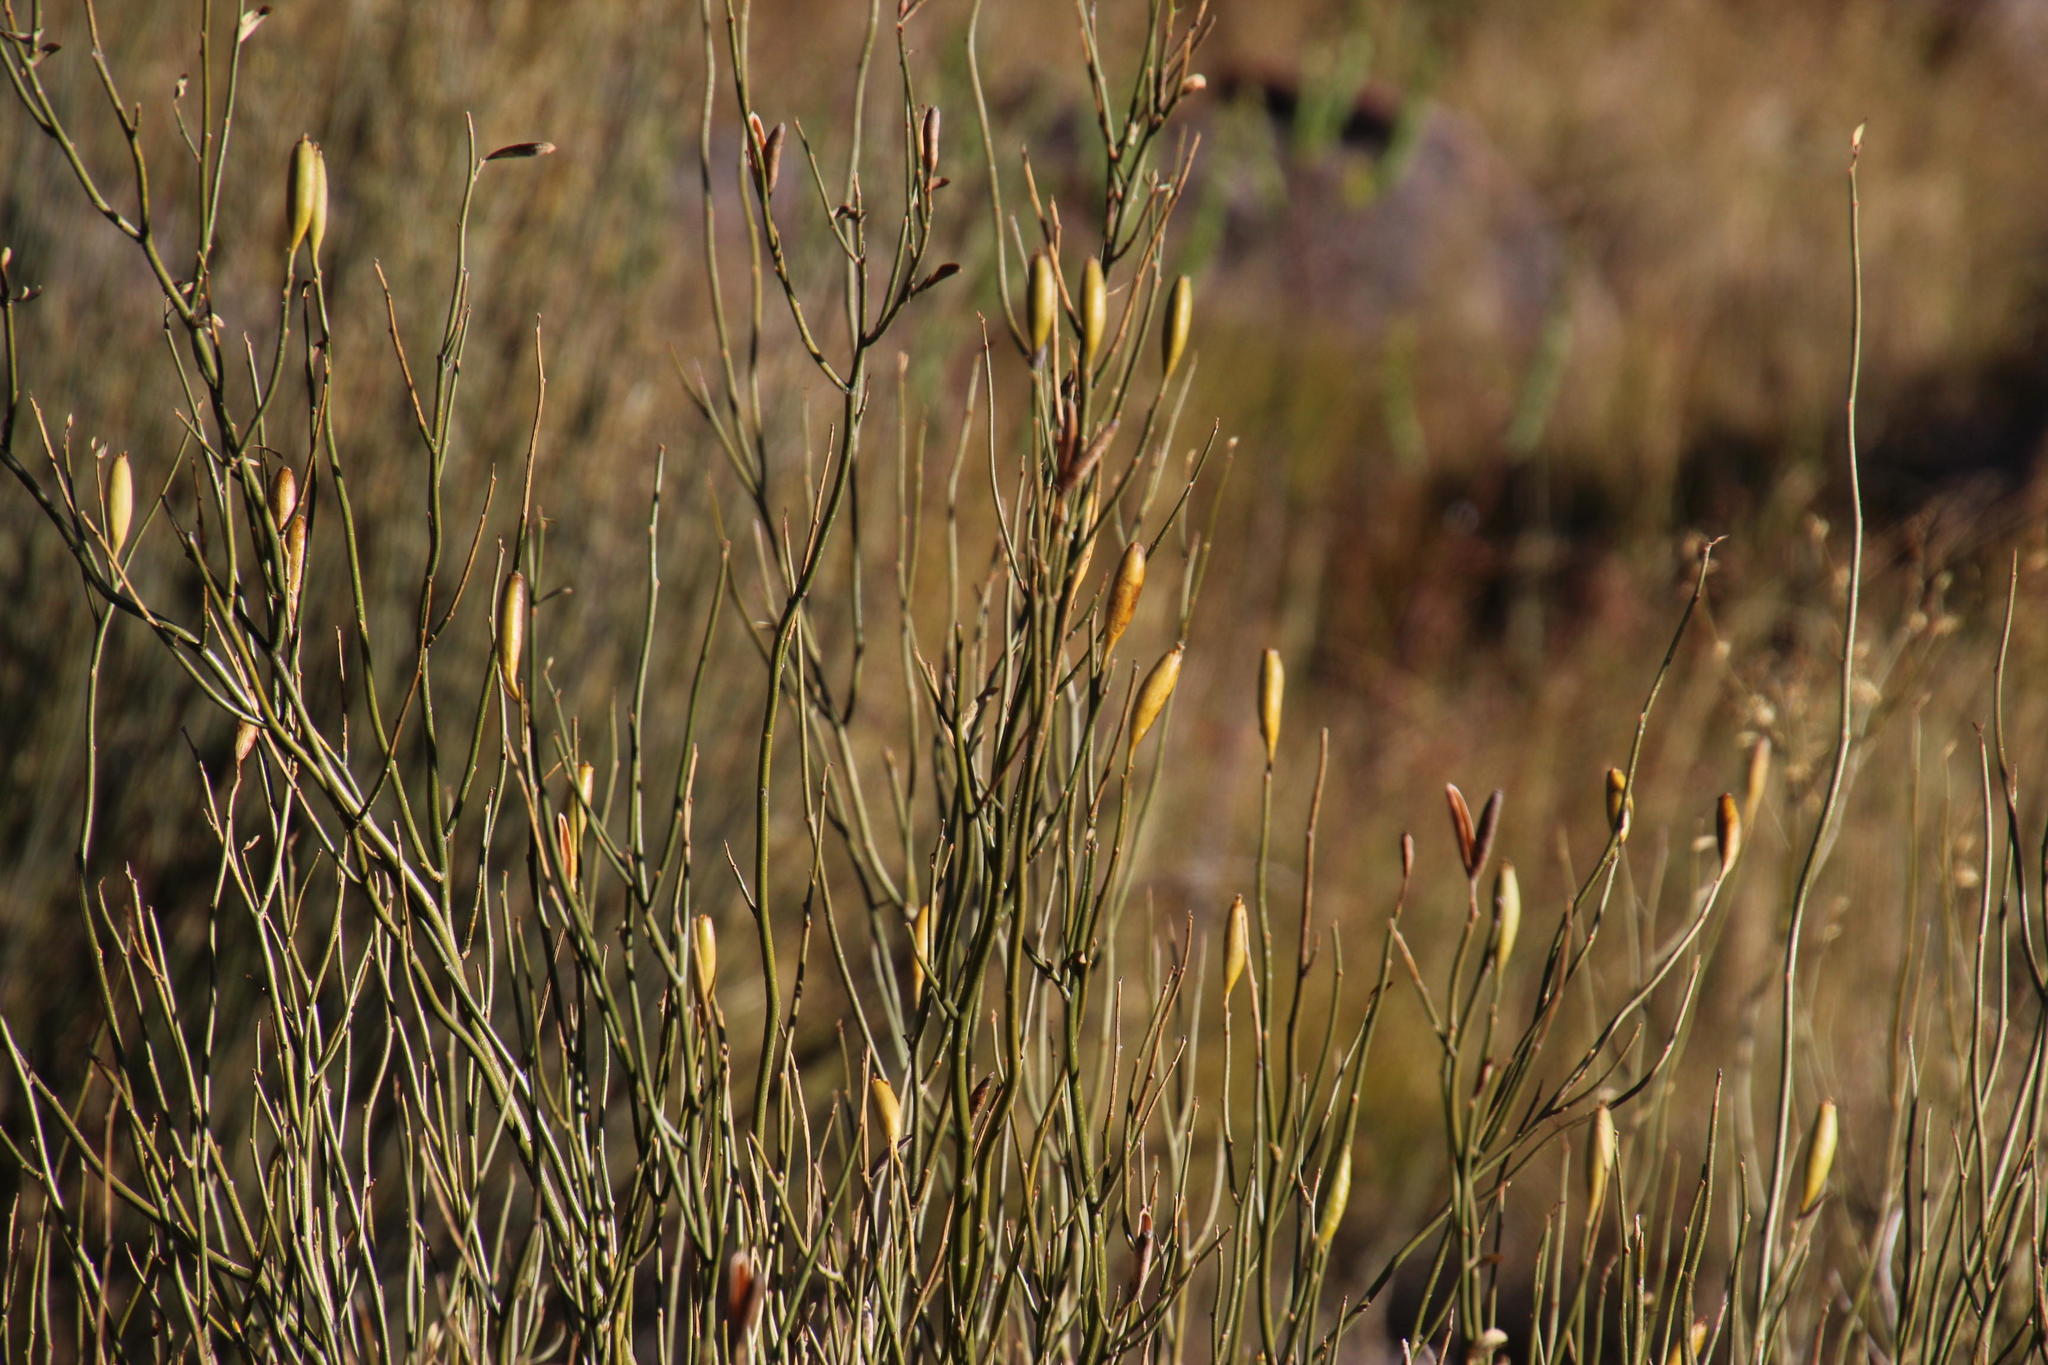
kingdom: Plantae
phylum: Tracheophyta
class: Magnoliopsida
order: Solanales
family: Montiniaceae
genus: Montinia
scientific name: Montinia caryophyllacea
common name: Wild clove-bush
